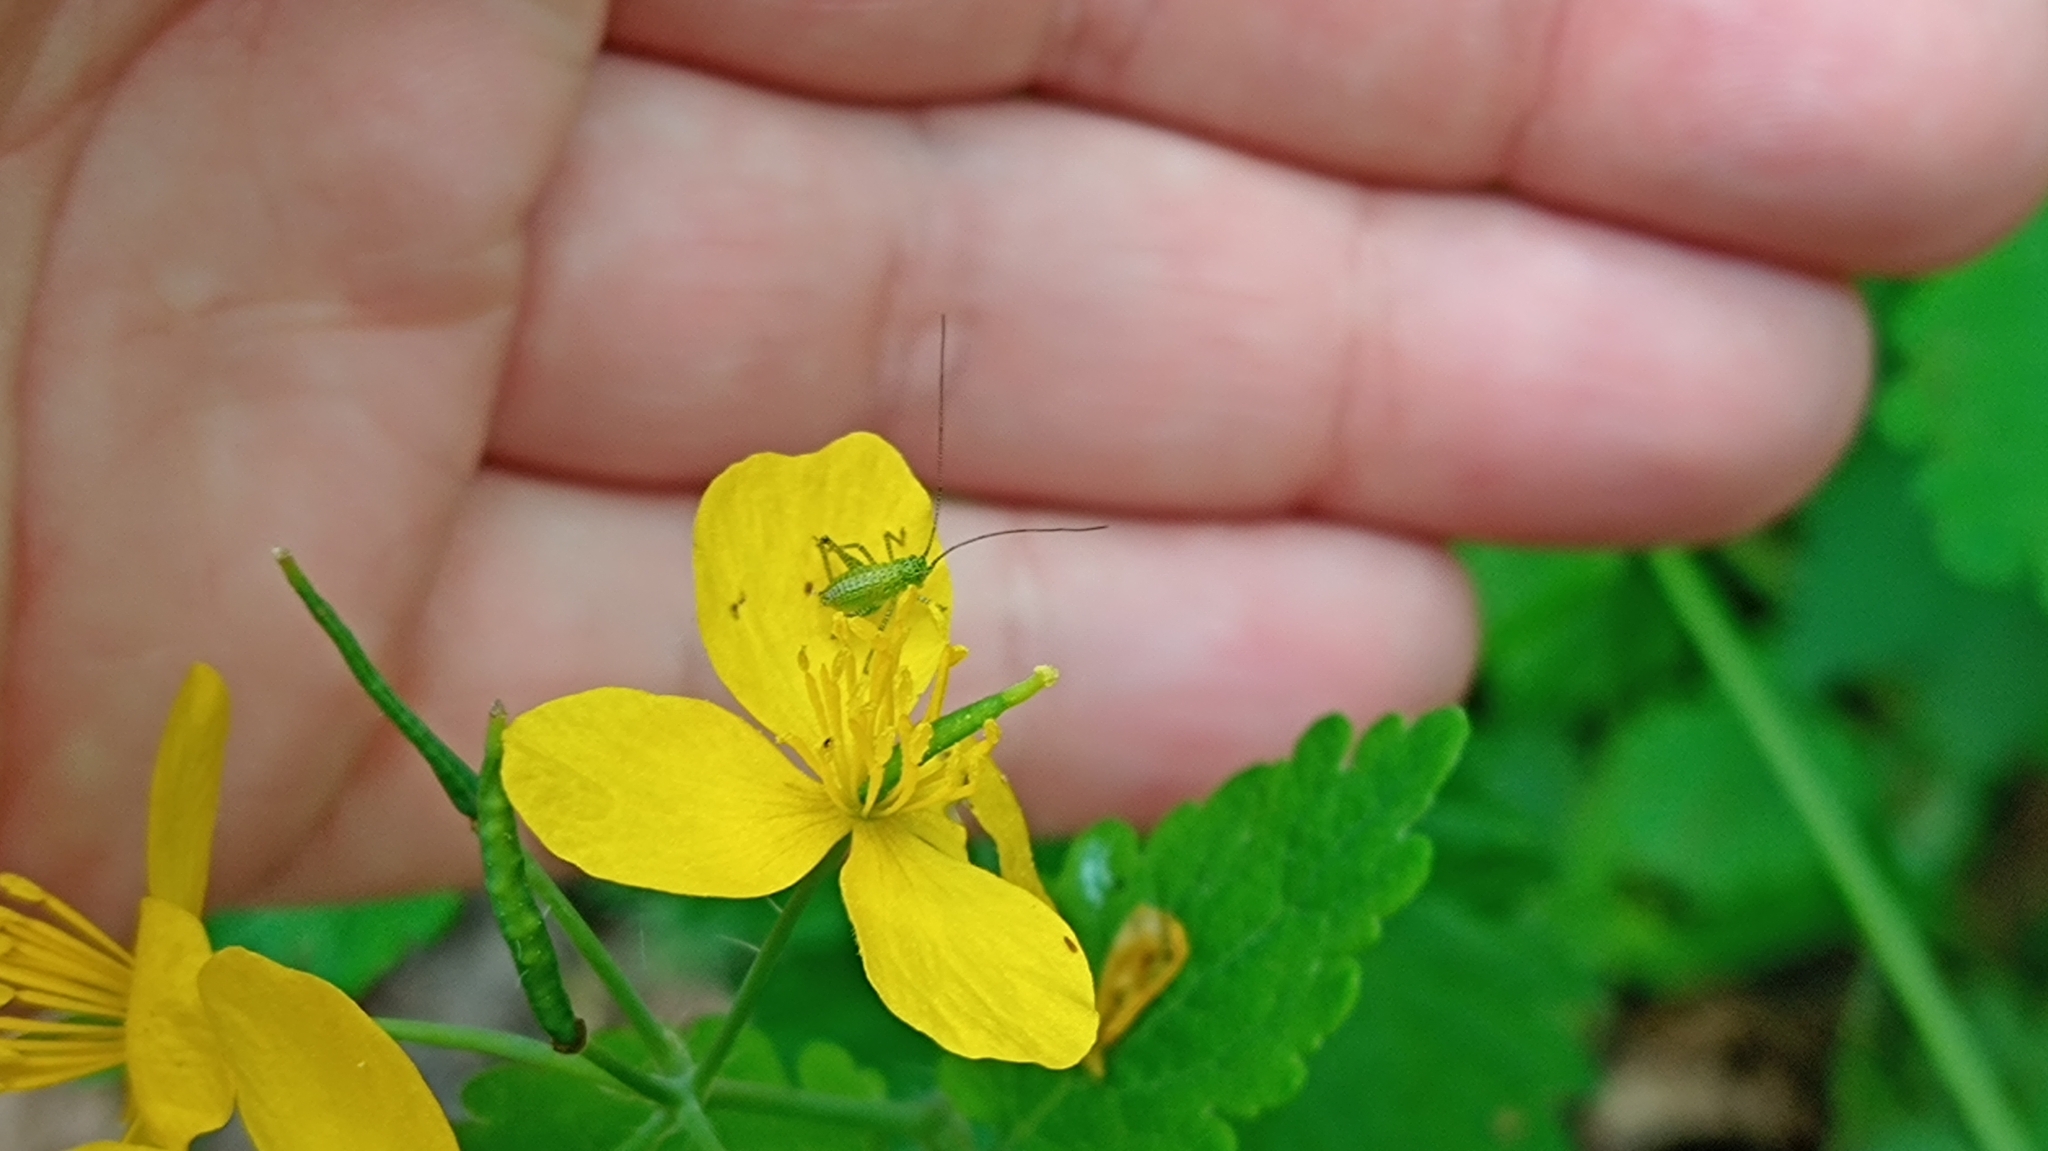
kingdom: Animalia
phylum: Arthropoda
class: Insecta
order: Orthoptera
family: Tettigoniidae
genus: Leptophyes
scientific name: Leptophyes punctatissima
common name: Speckled bush-cricket
